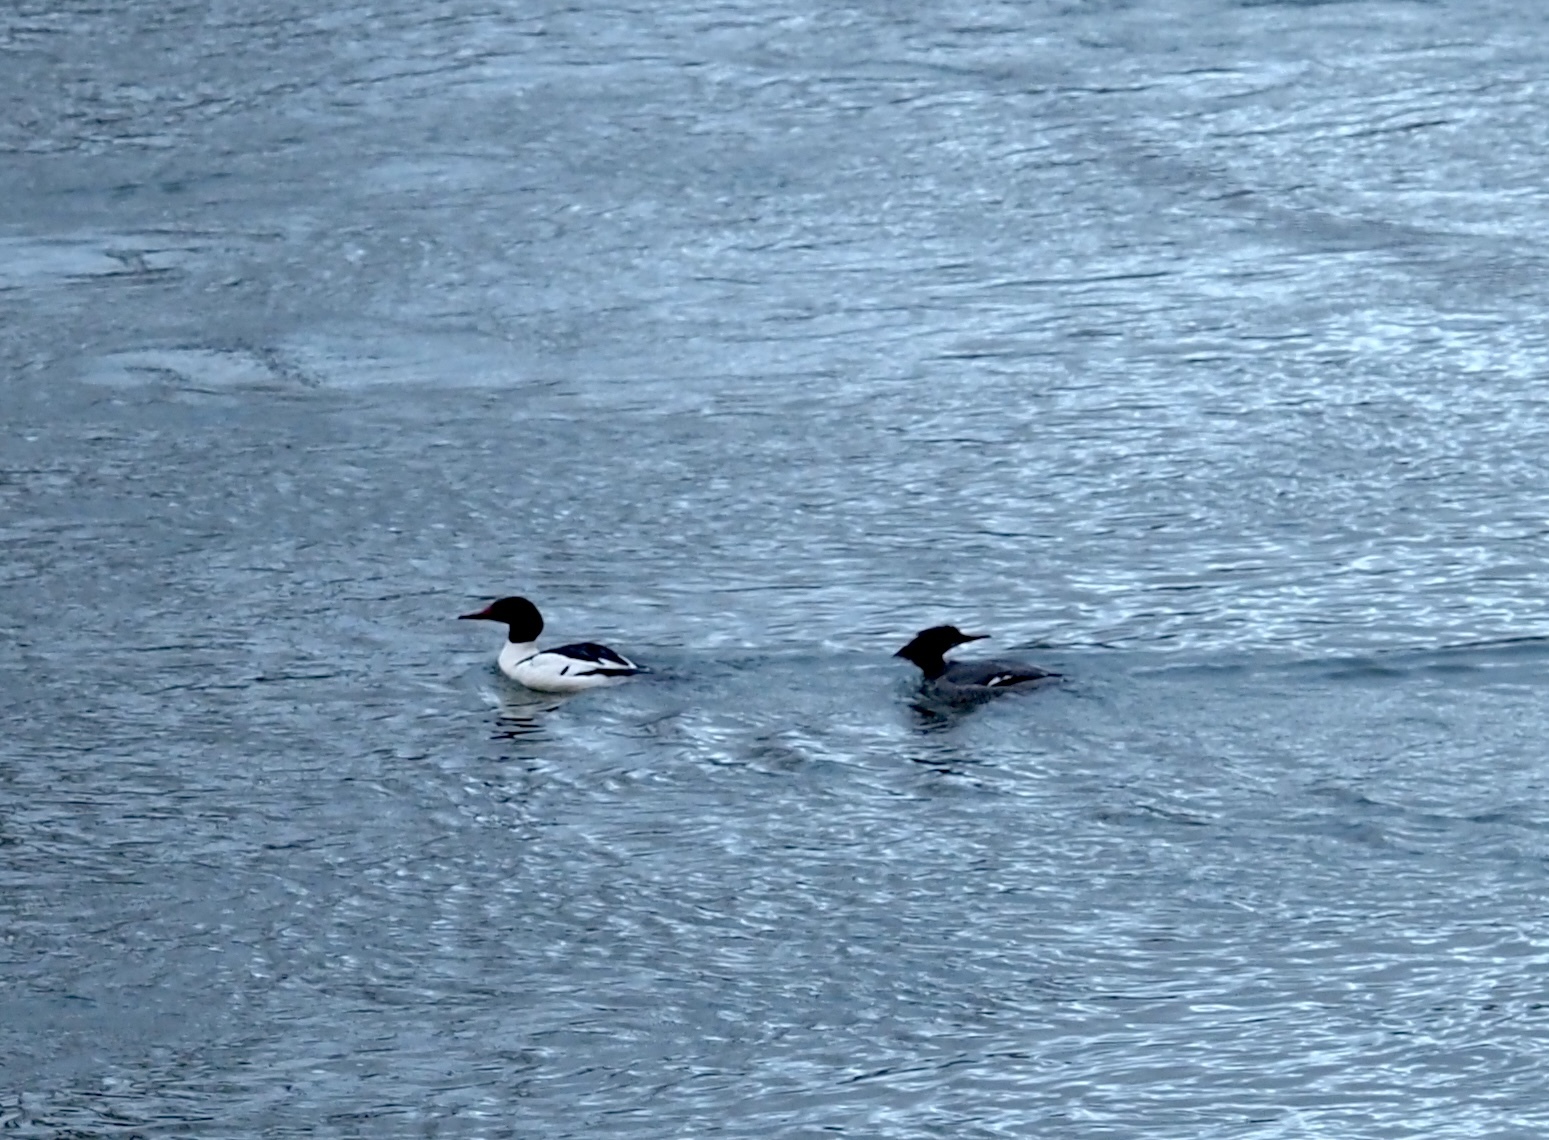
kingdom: Animalia
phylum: Chordata
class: Aves
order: Anseriformes
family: Anatidae
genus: Mergus
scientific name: Mergus merganser
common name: Common merganser
